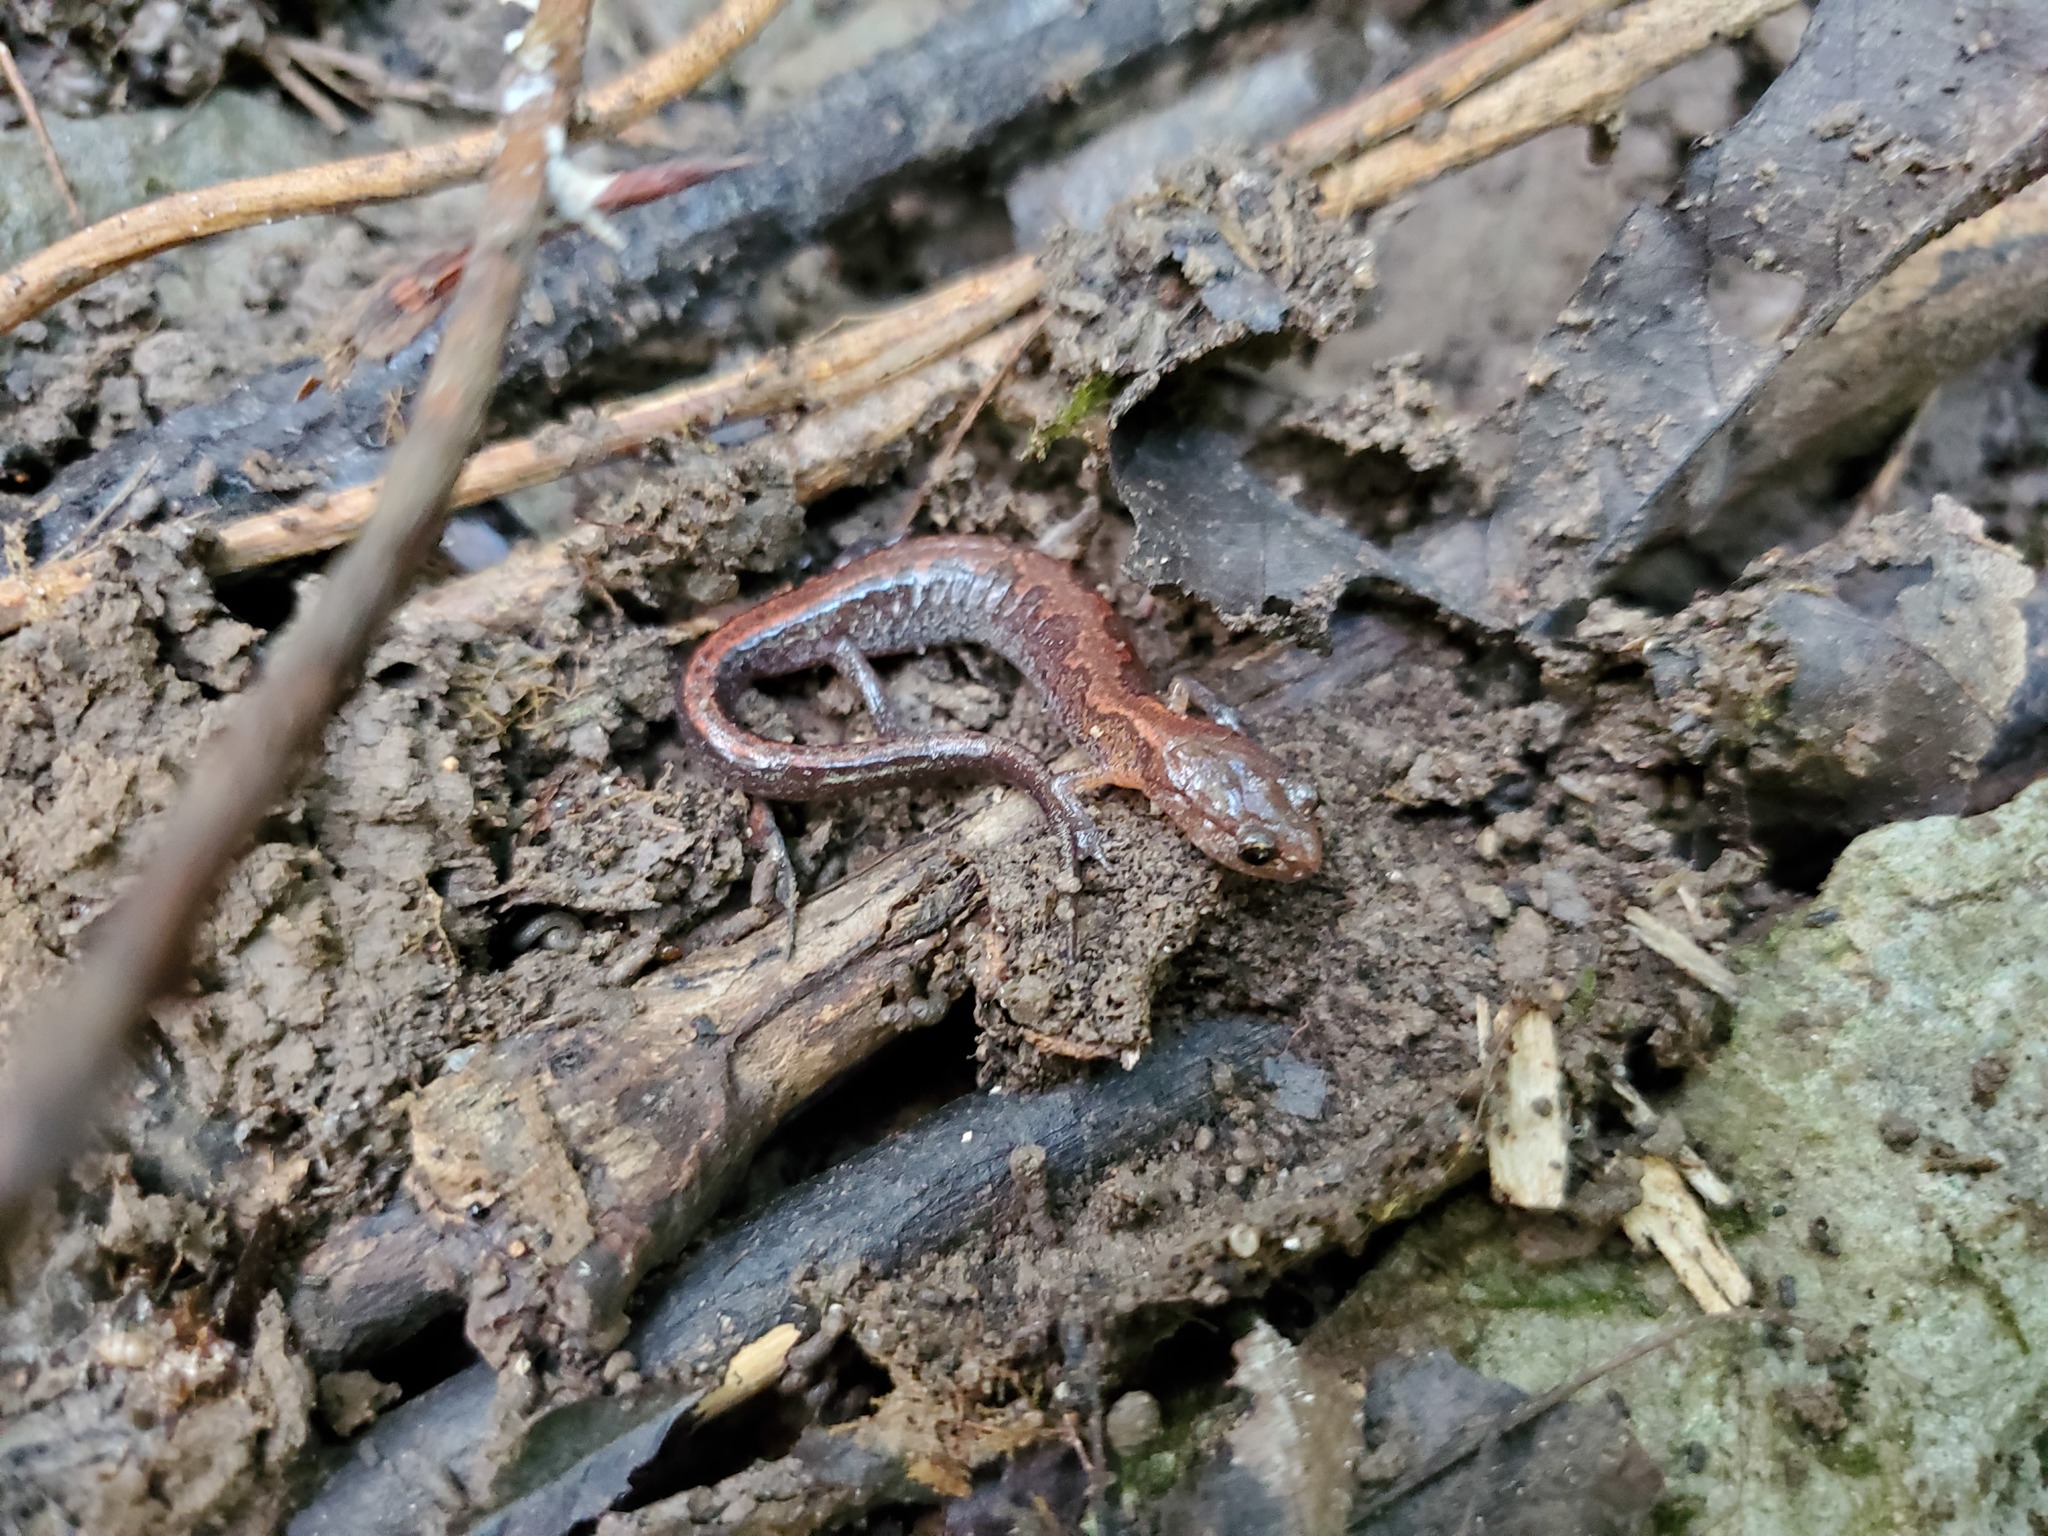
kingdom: Animalia
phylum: Chordata
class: Amphibia
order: Caudata
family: Plethodontidae
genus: Plethodon
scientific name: Plethodon dorsalis
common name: Northern zigzag salamander
